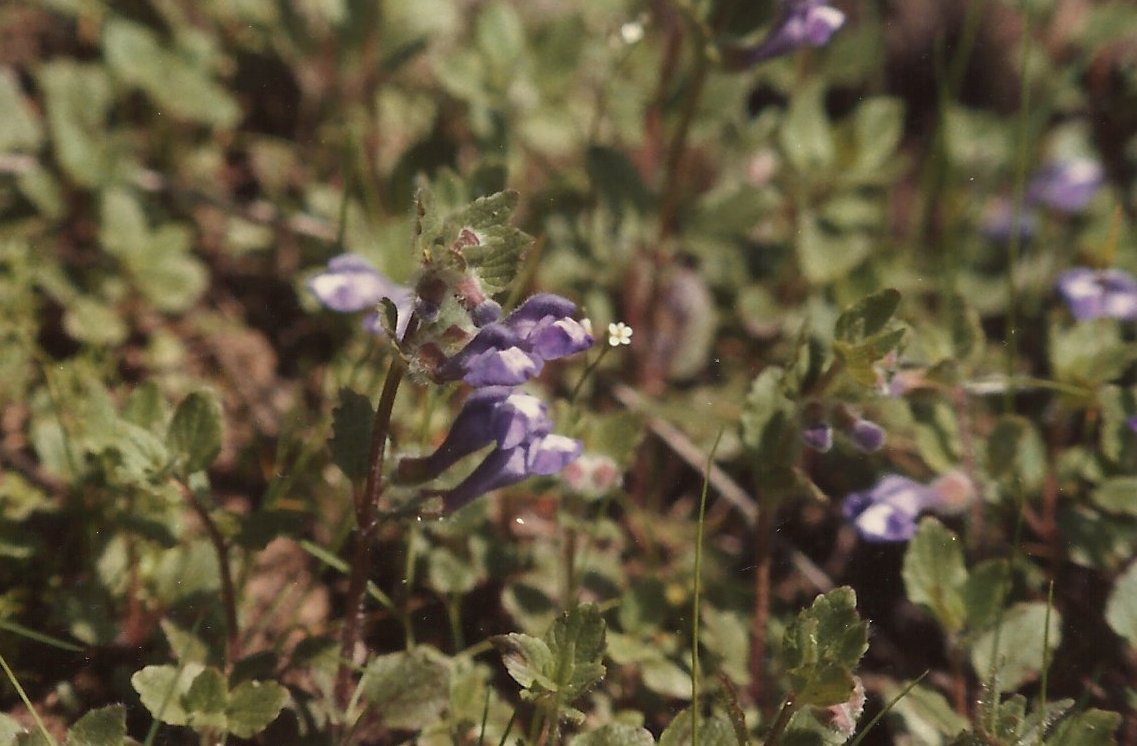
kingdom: Plantae
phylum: Tracheophyta
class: Magnoliopsida
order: Lamiales
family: Lamiaceae
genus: Scutellaria
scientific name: Scutellaria tuberosa
